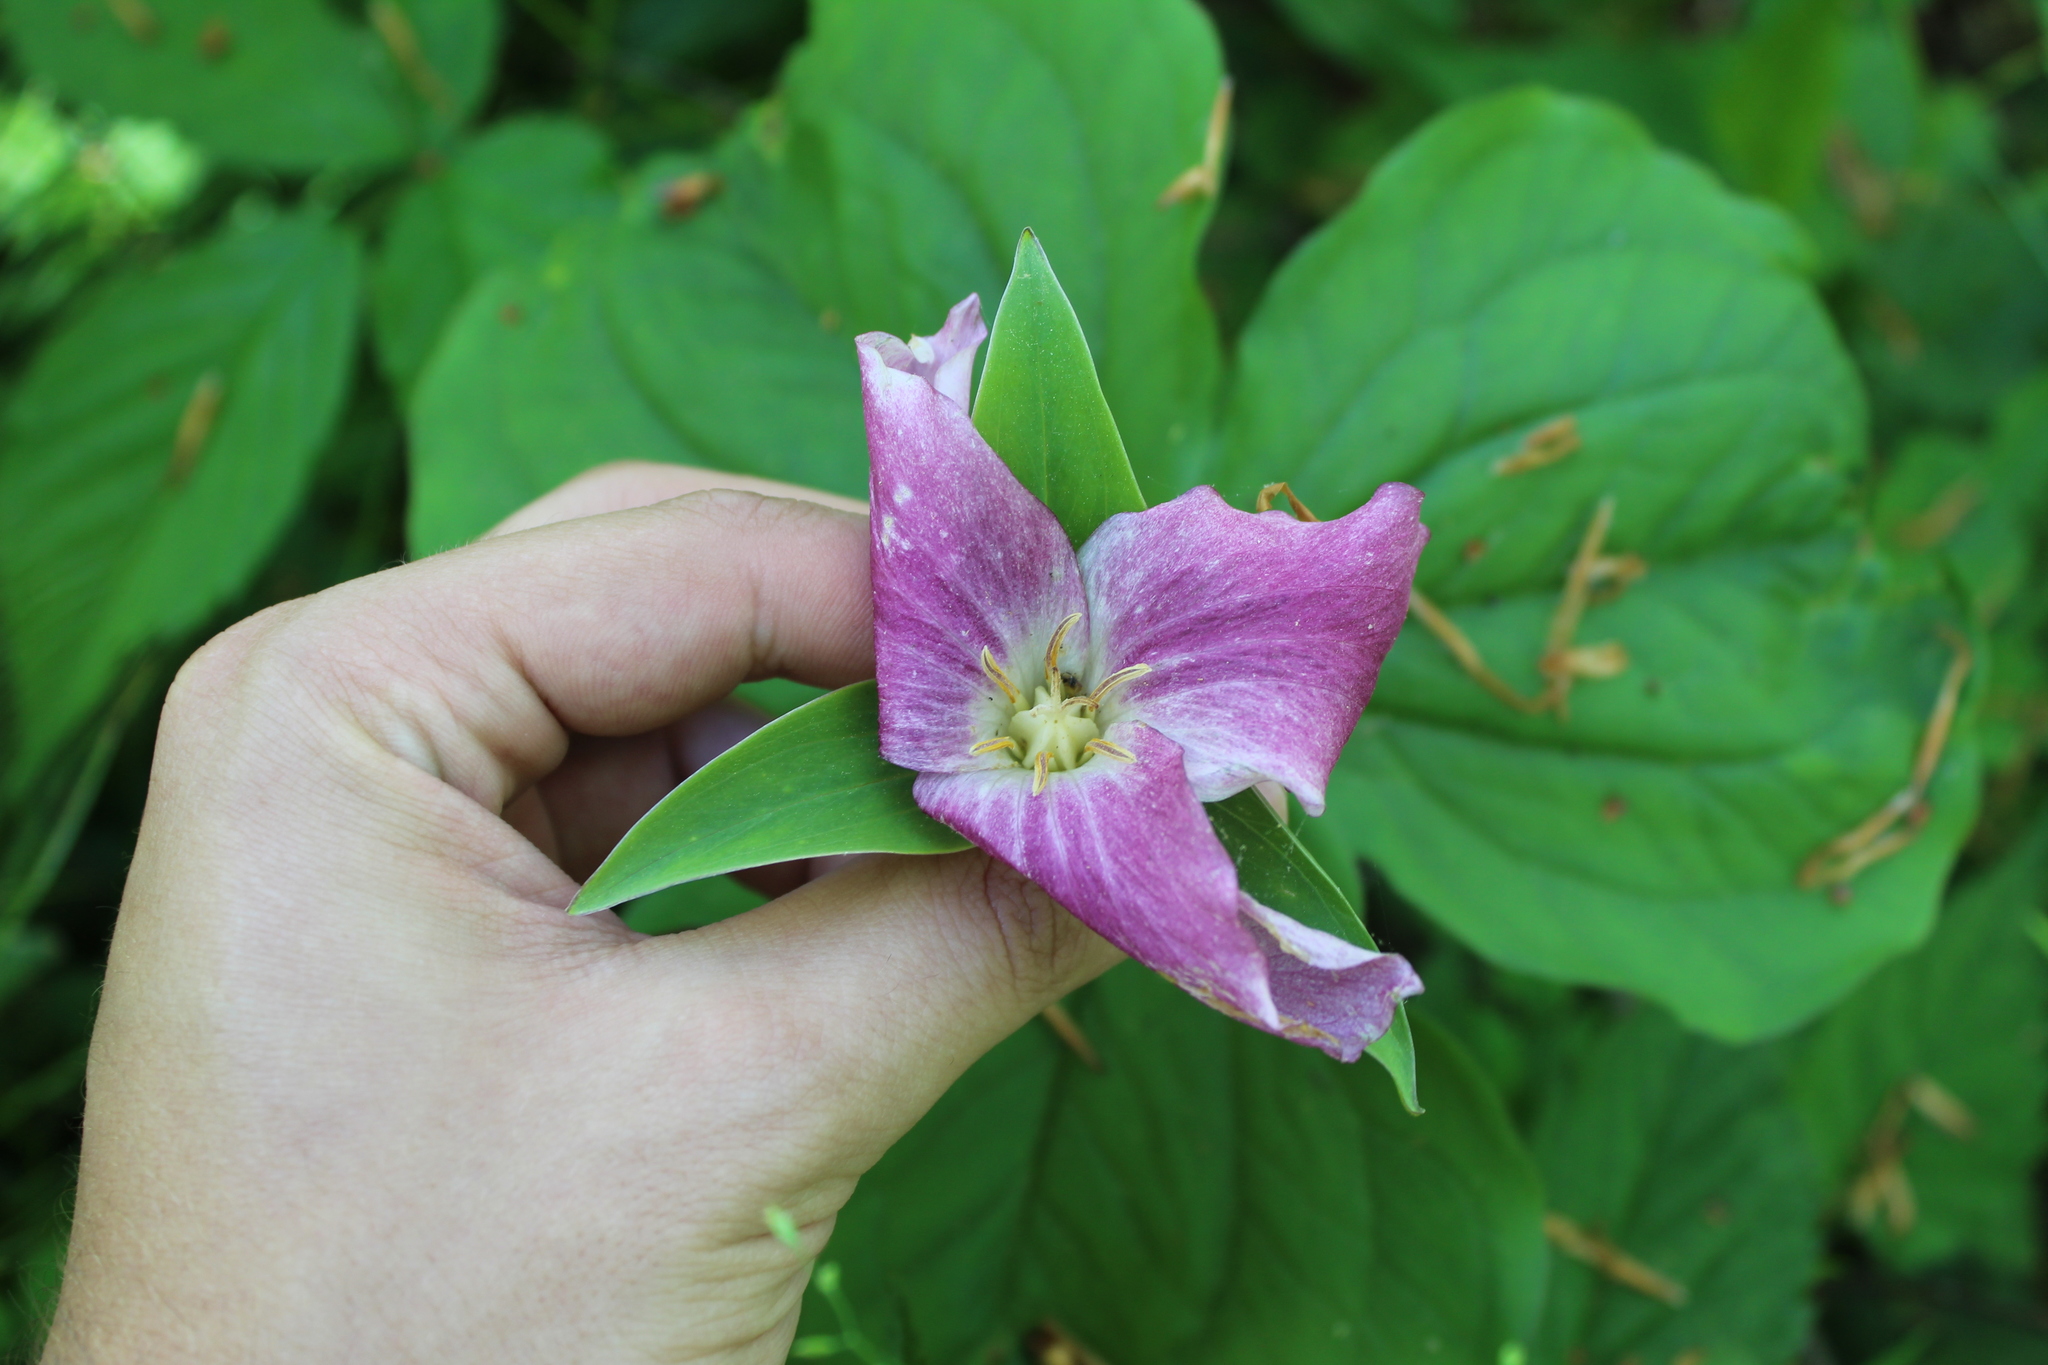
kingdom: Plantae
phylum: Tracheophyta
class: Liliopsida
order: Liliales
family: Melanthiaceae
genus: Trillium
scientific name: Trillium grandiflorum
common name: Great white trillium
